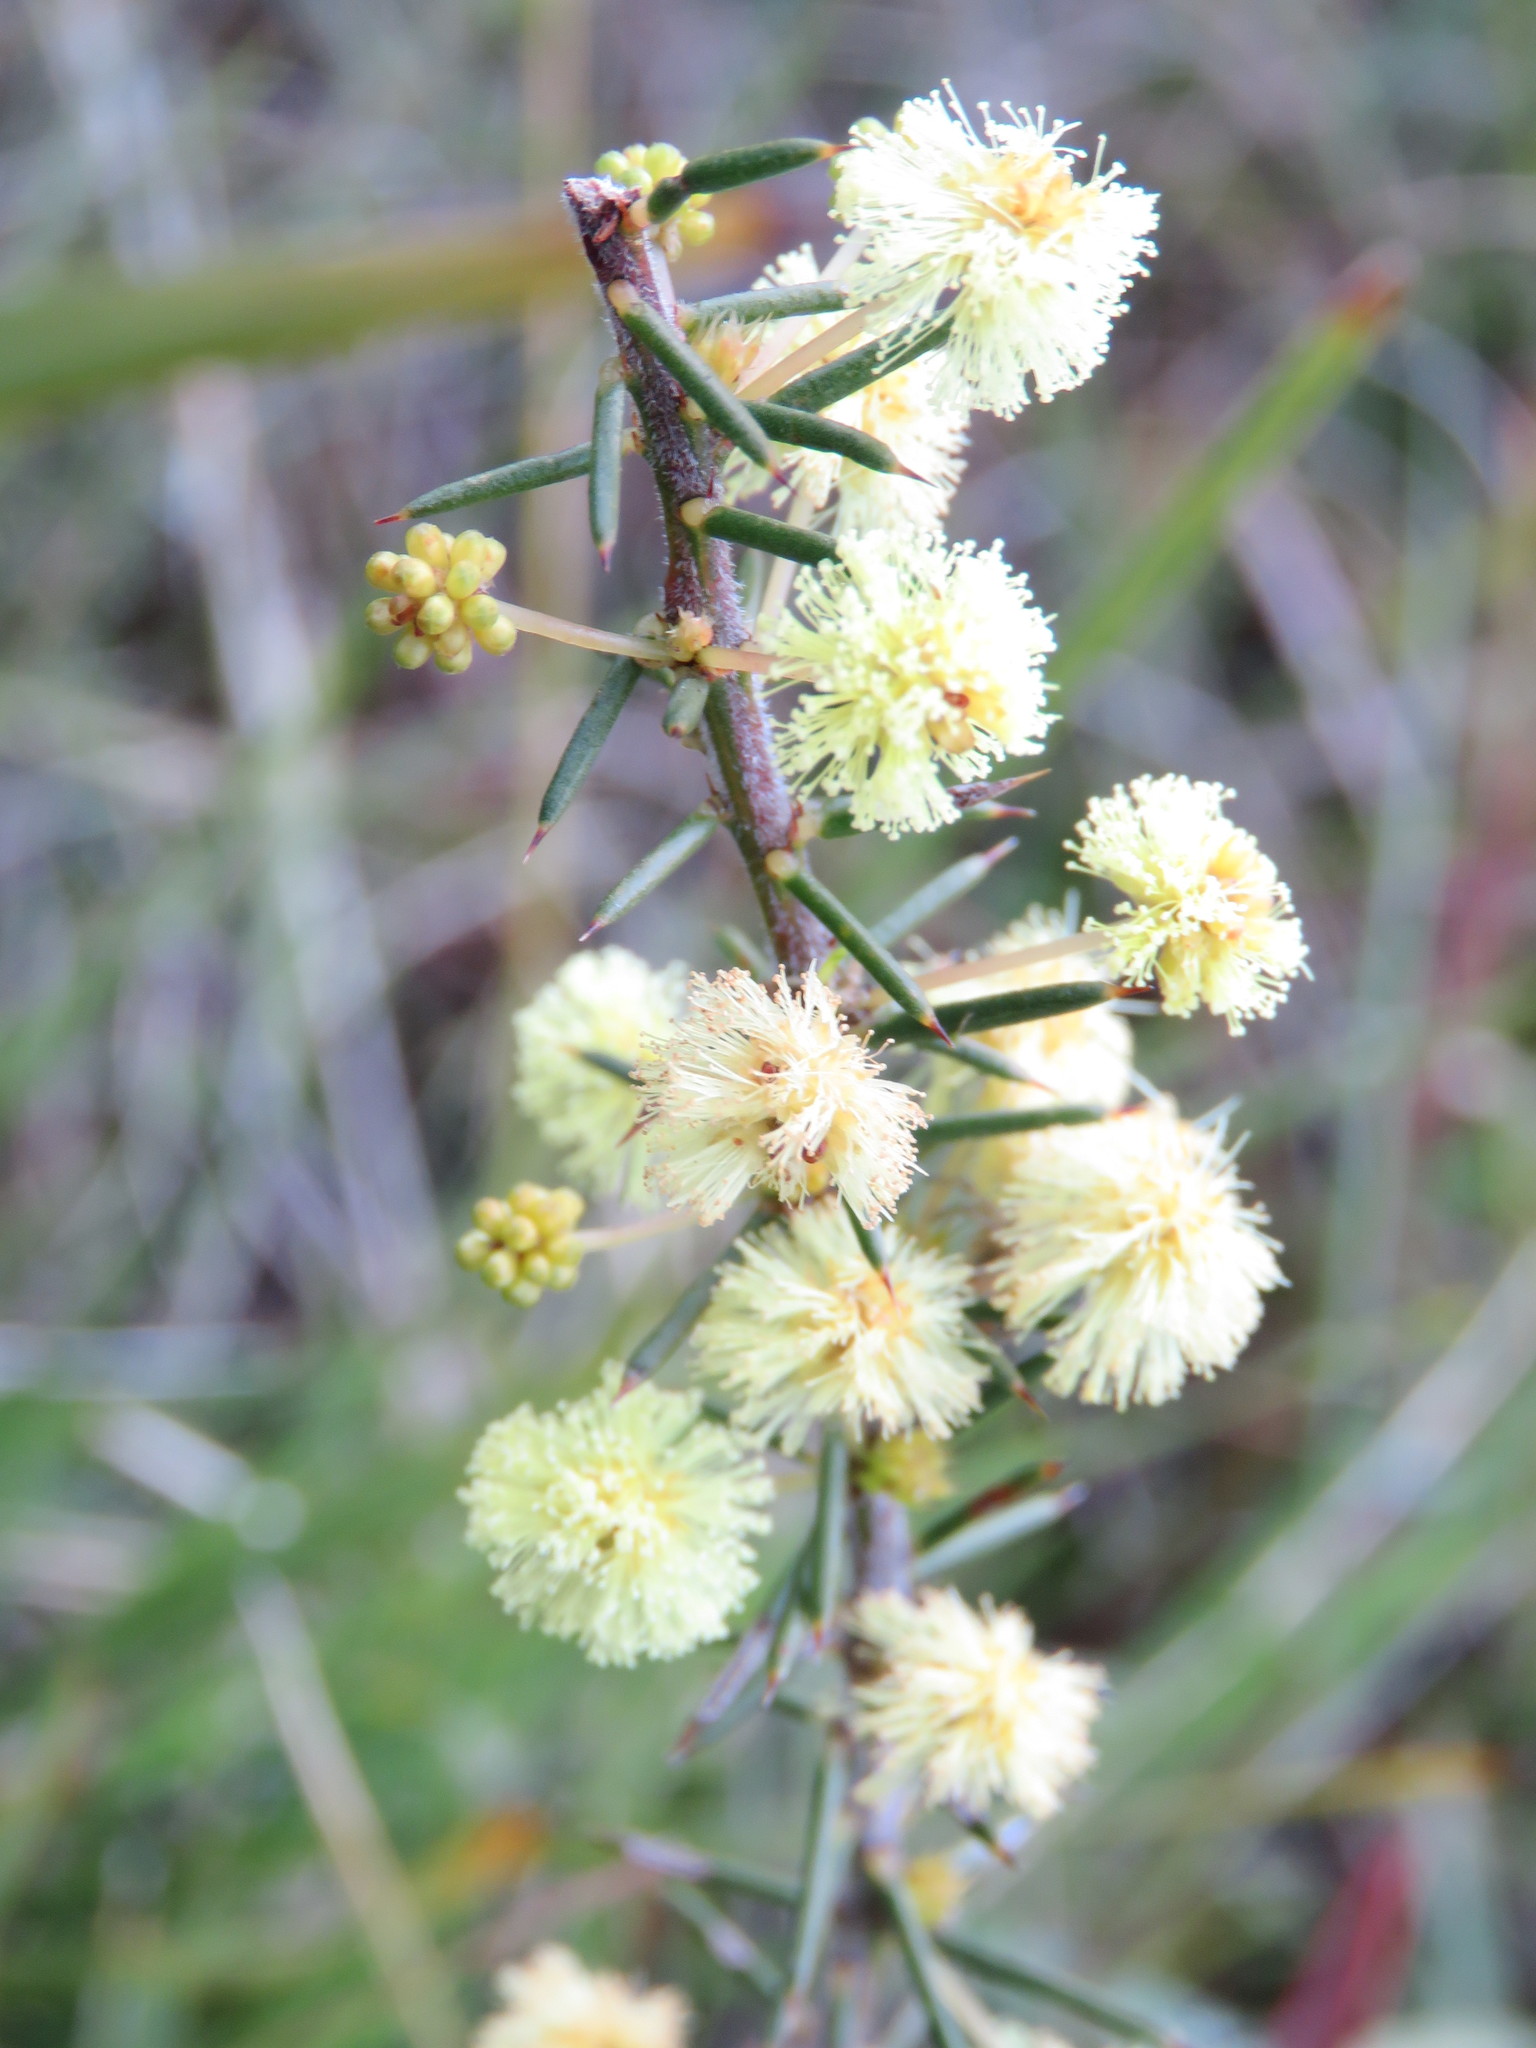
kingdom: Plantae
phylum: Tracheophyta
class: Magnoliopsida
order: Fabales
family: Fabaceae
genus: Acacia
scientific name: Acacia aculeatissima
